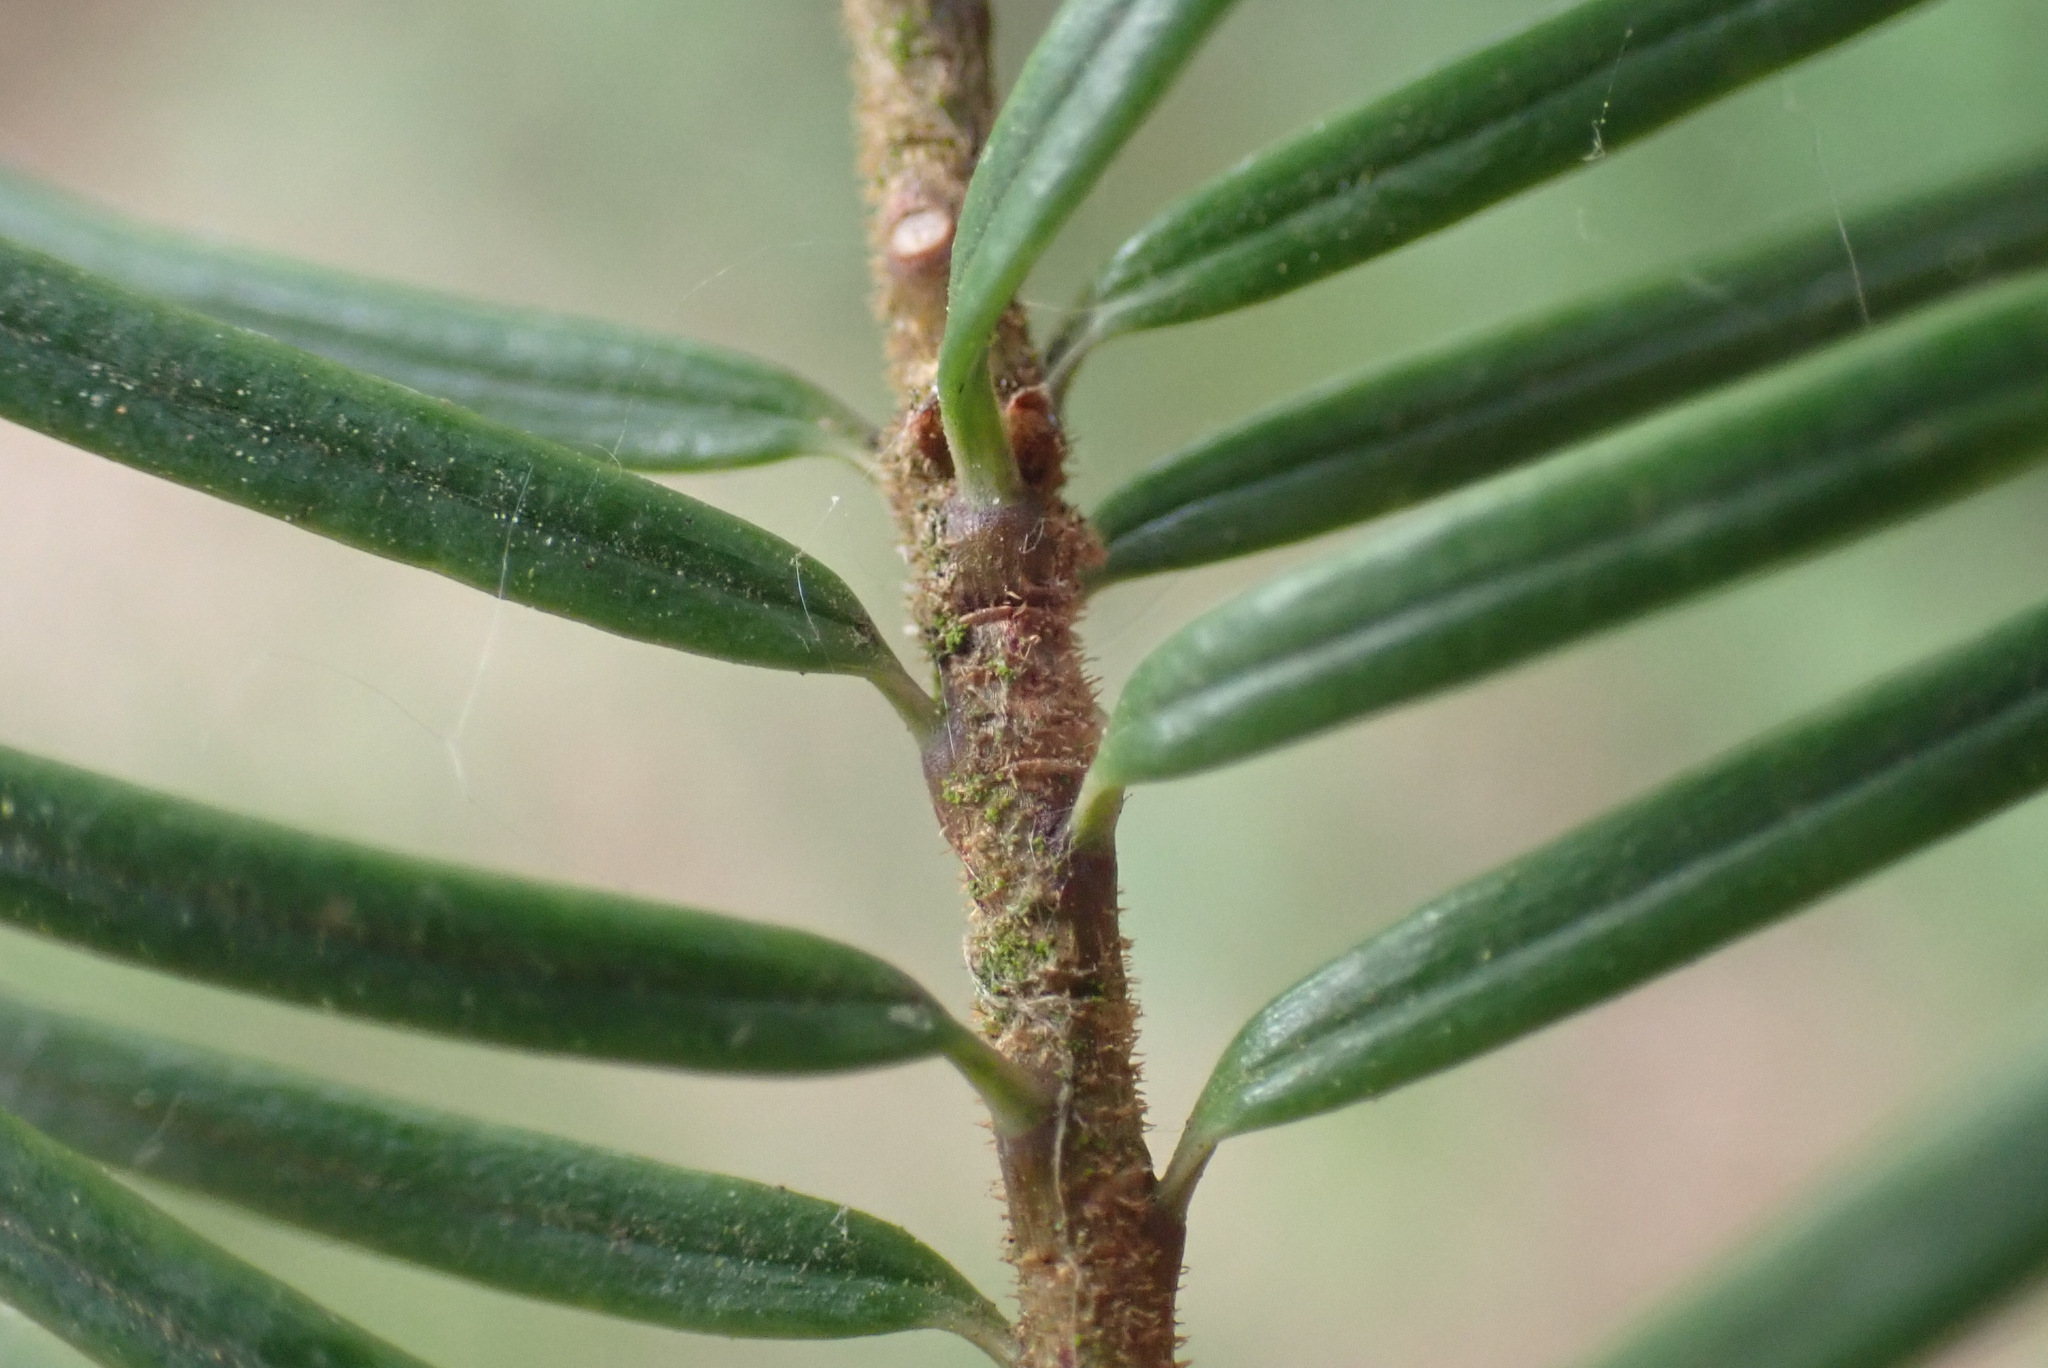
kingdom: Plantae
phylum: Tracheophyta
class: Pinopsida
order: Pinales
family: Pinaceae
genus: Pseudotsuga
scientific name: Pseudotsuga menziesii
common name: Douglas fir
